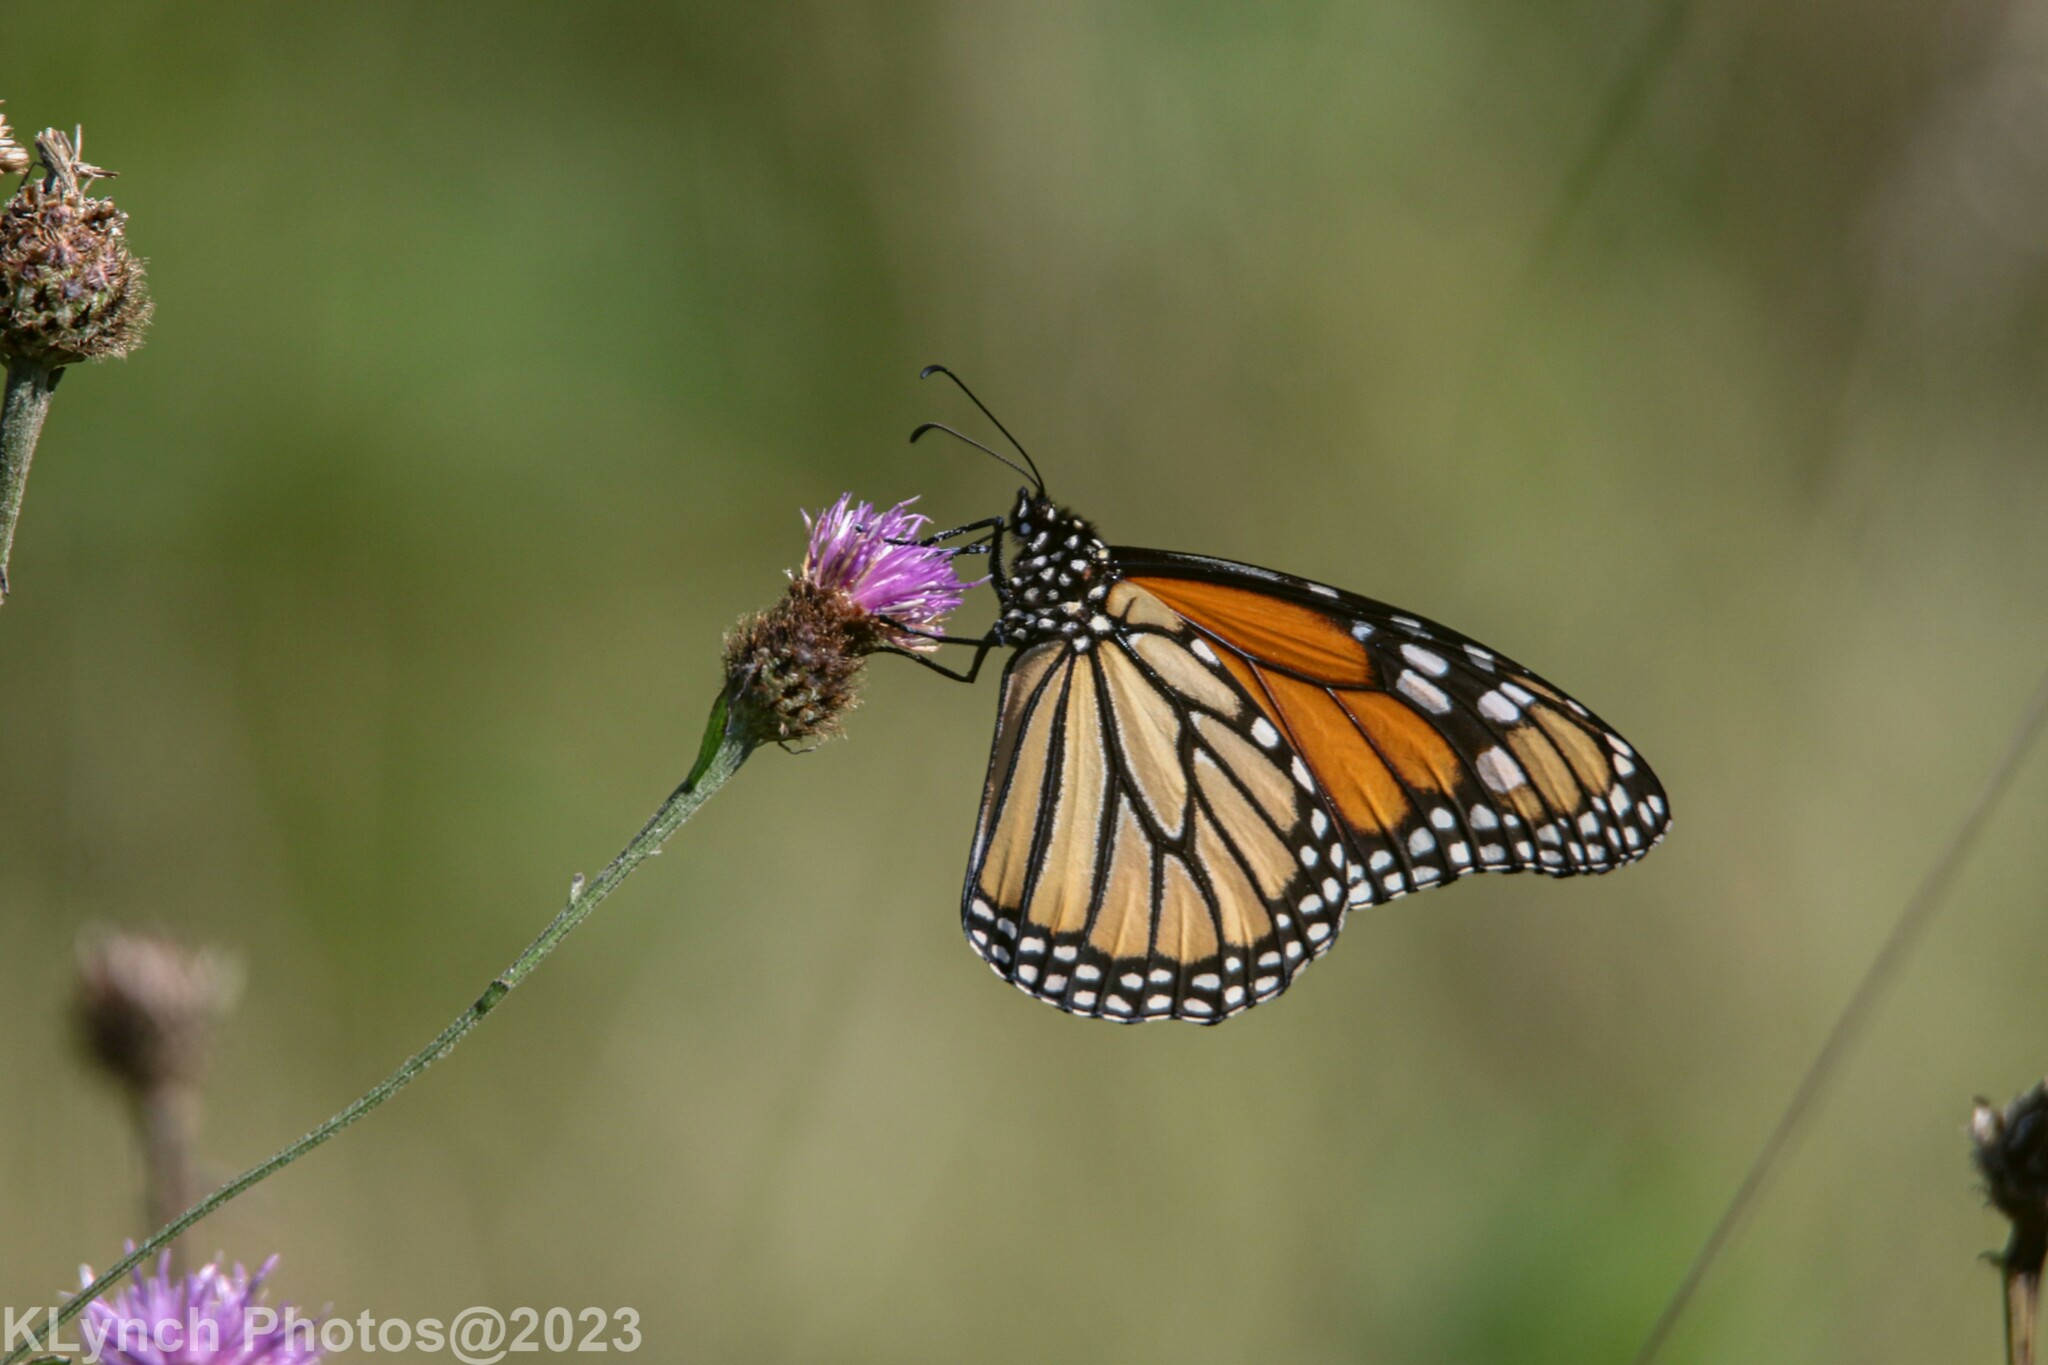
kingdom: Animalia
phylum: Arthropoda
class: Insecta
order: Lepidoptera
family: Nymphalidae
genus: Danaus
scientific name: Danaus plexippus
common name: Monarch
